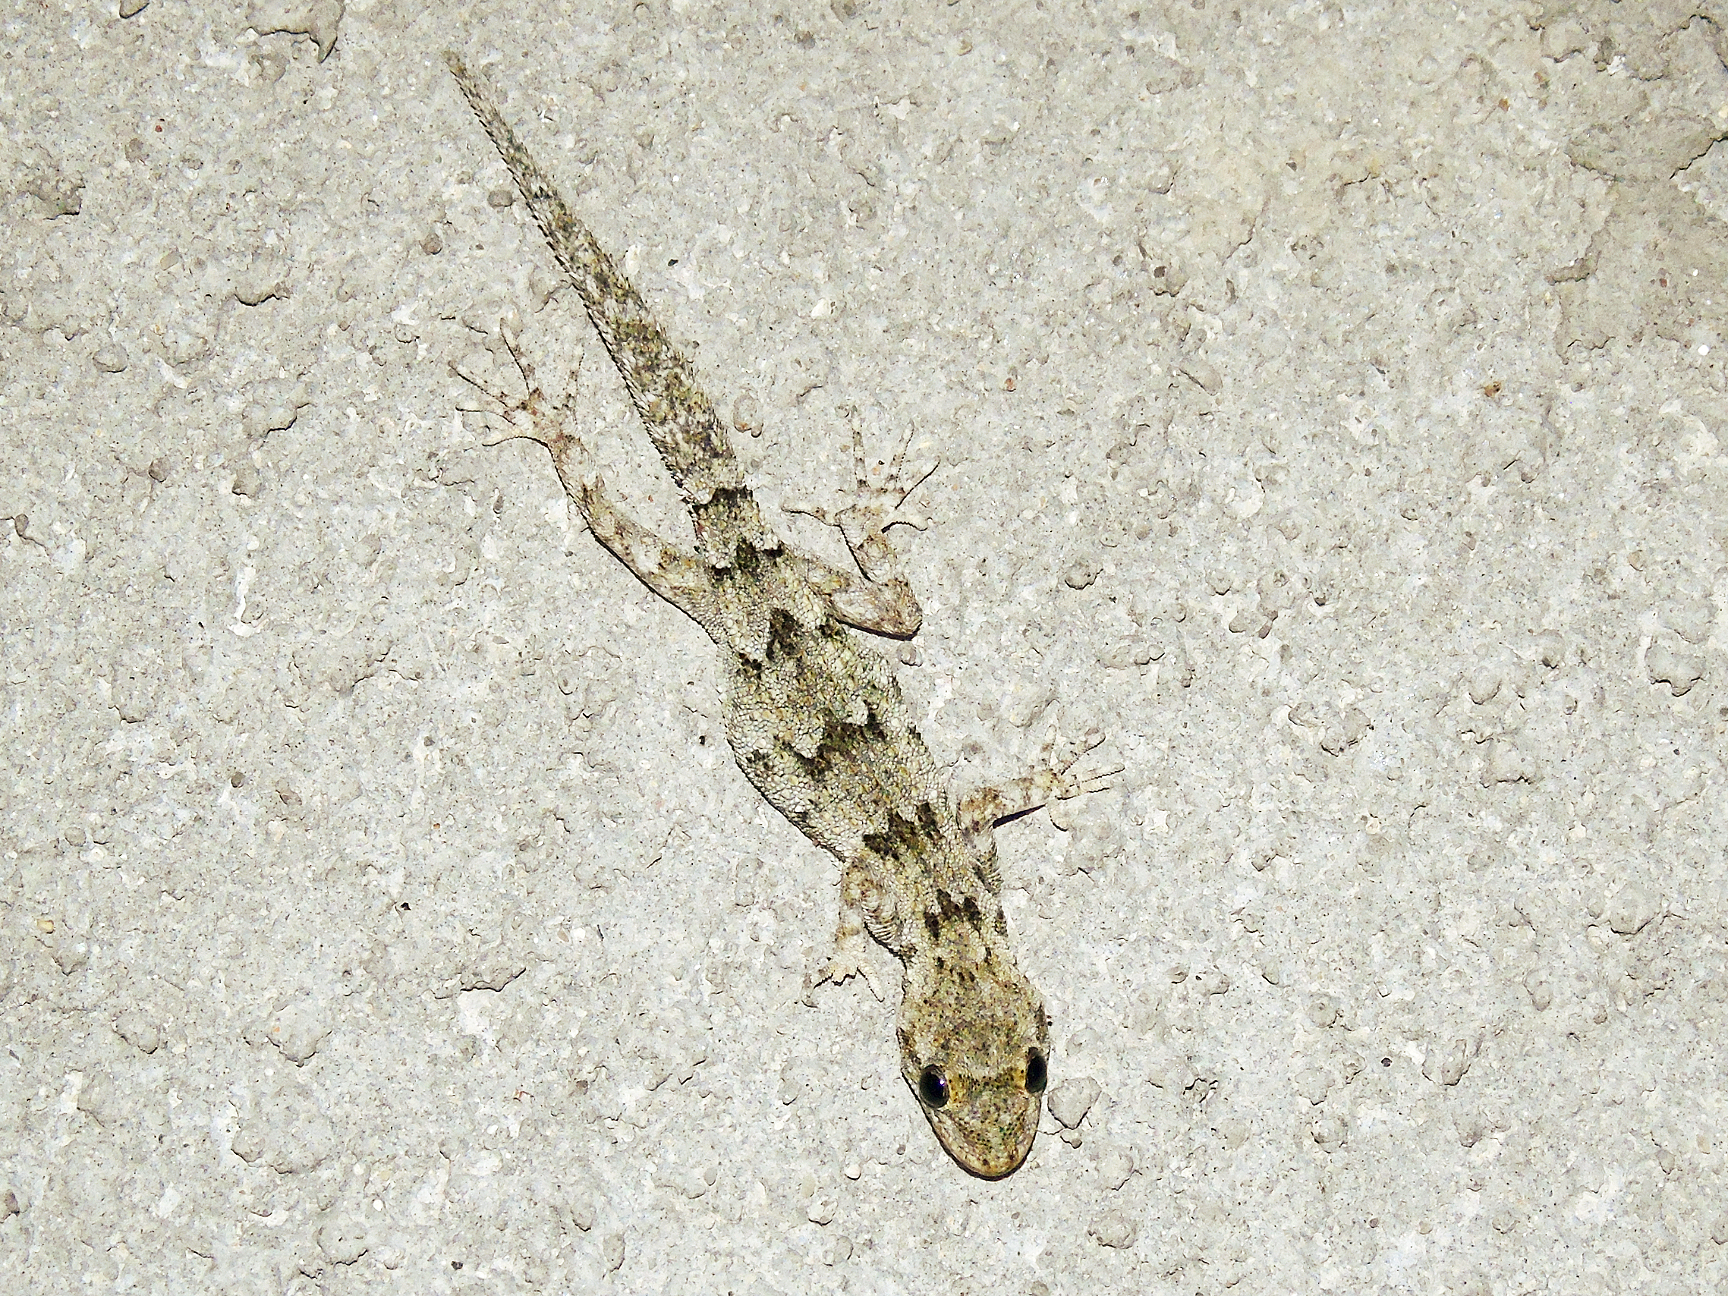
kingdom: Animalia
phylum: Chordata
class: Squamata
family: Gekkonidae
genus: Mediodactylus
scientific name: Mediodactylus danilewskii
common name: Bulgarian bent-toed gecko
